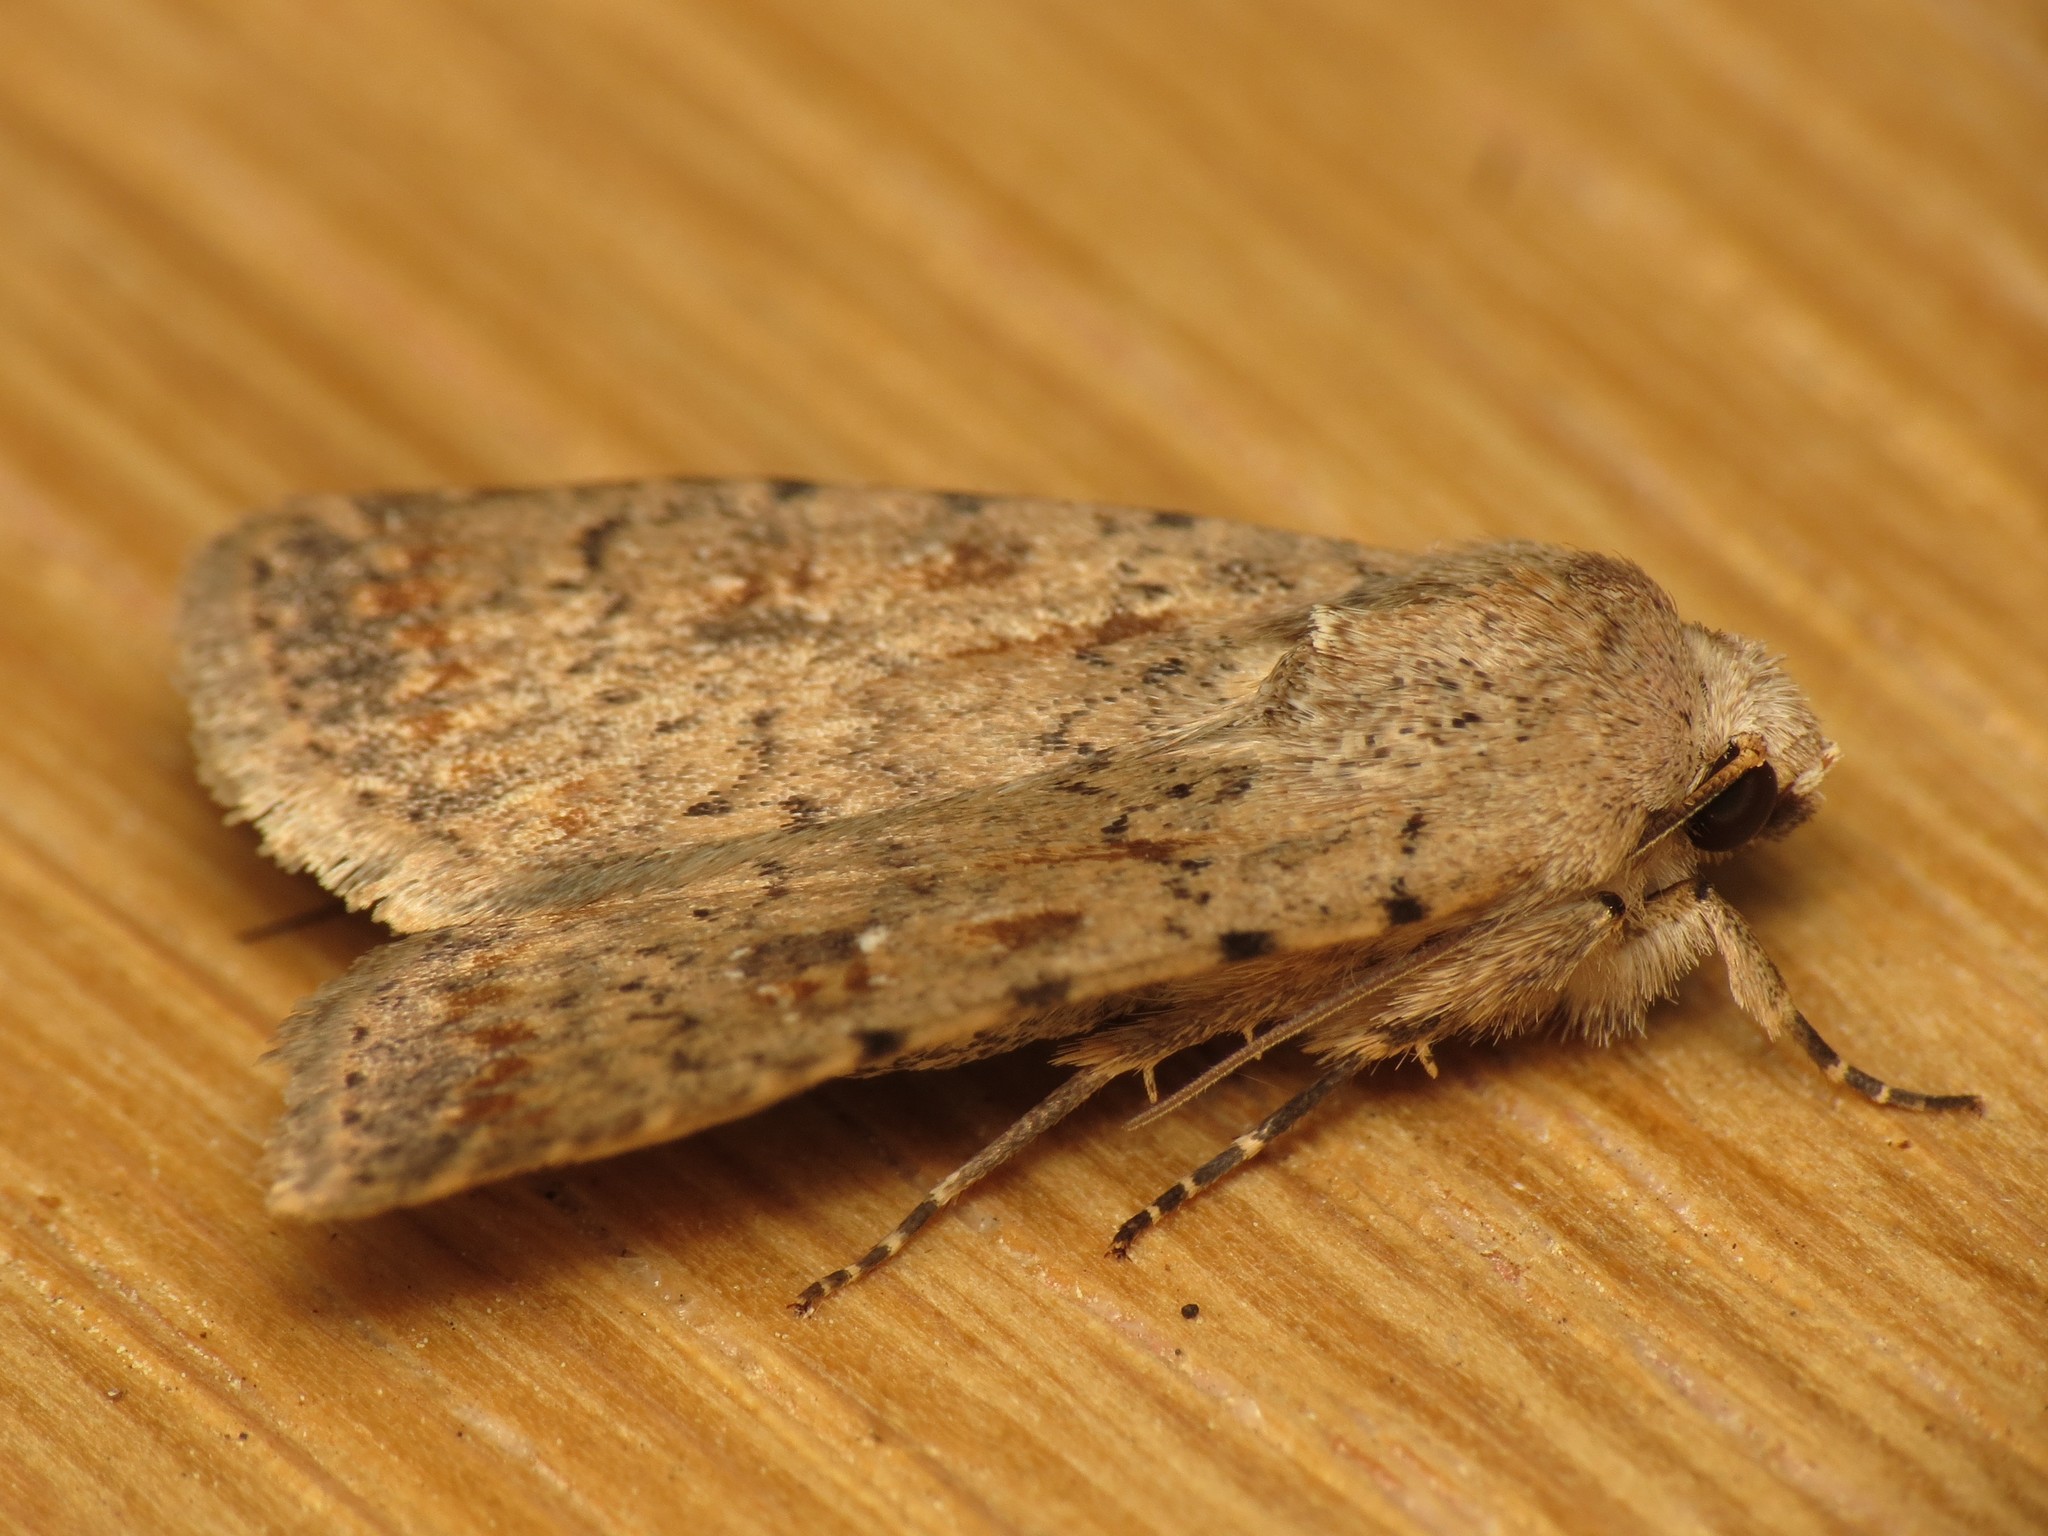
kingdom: Animalia
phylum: Arthropoda
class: Insecta
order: Lepidoptera
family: Noctuidae
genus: Caradrina
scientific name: Caradrina clavipalpis
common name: Pale mottled willow
